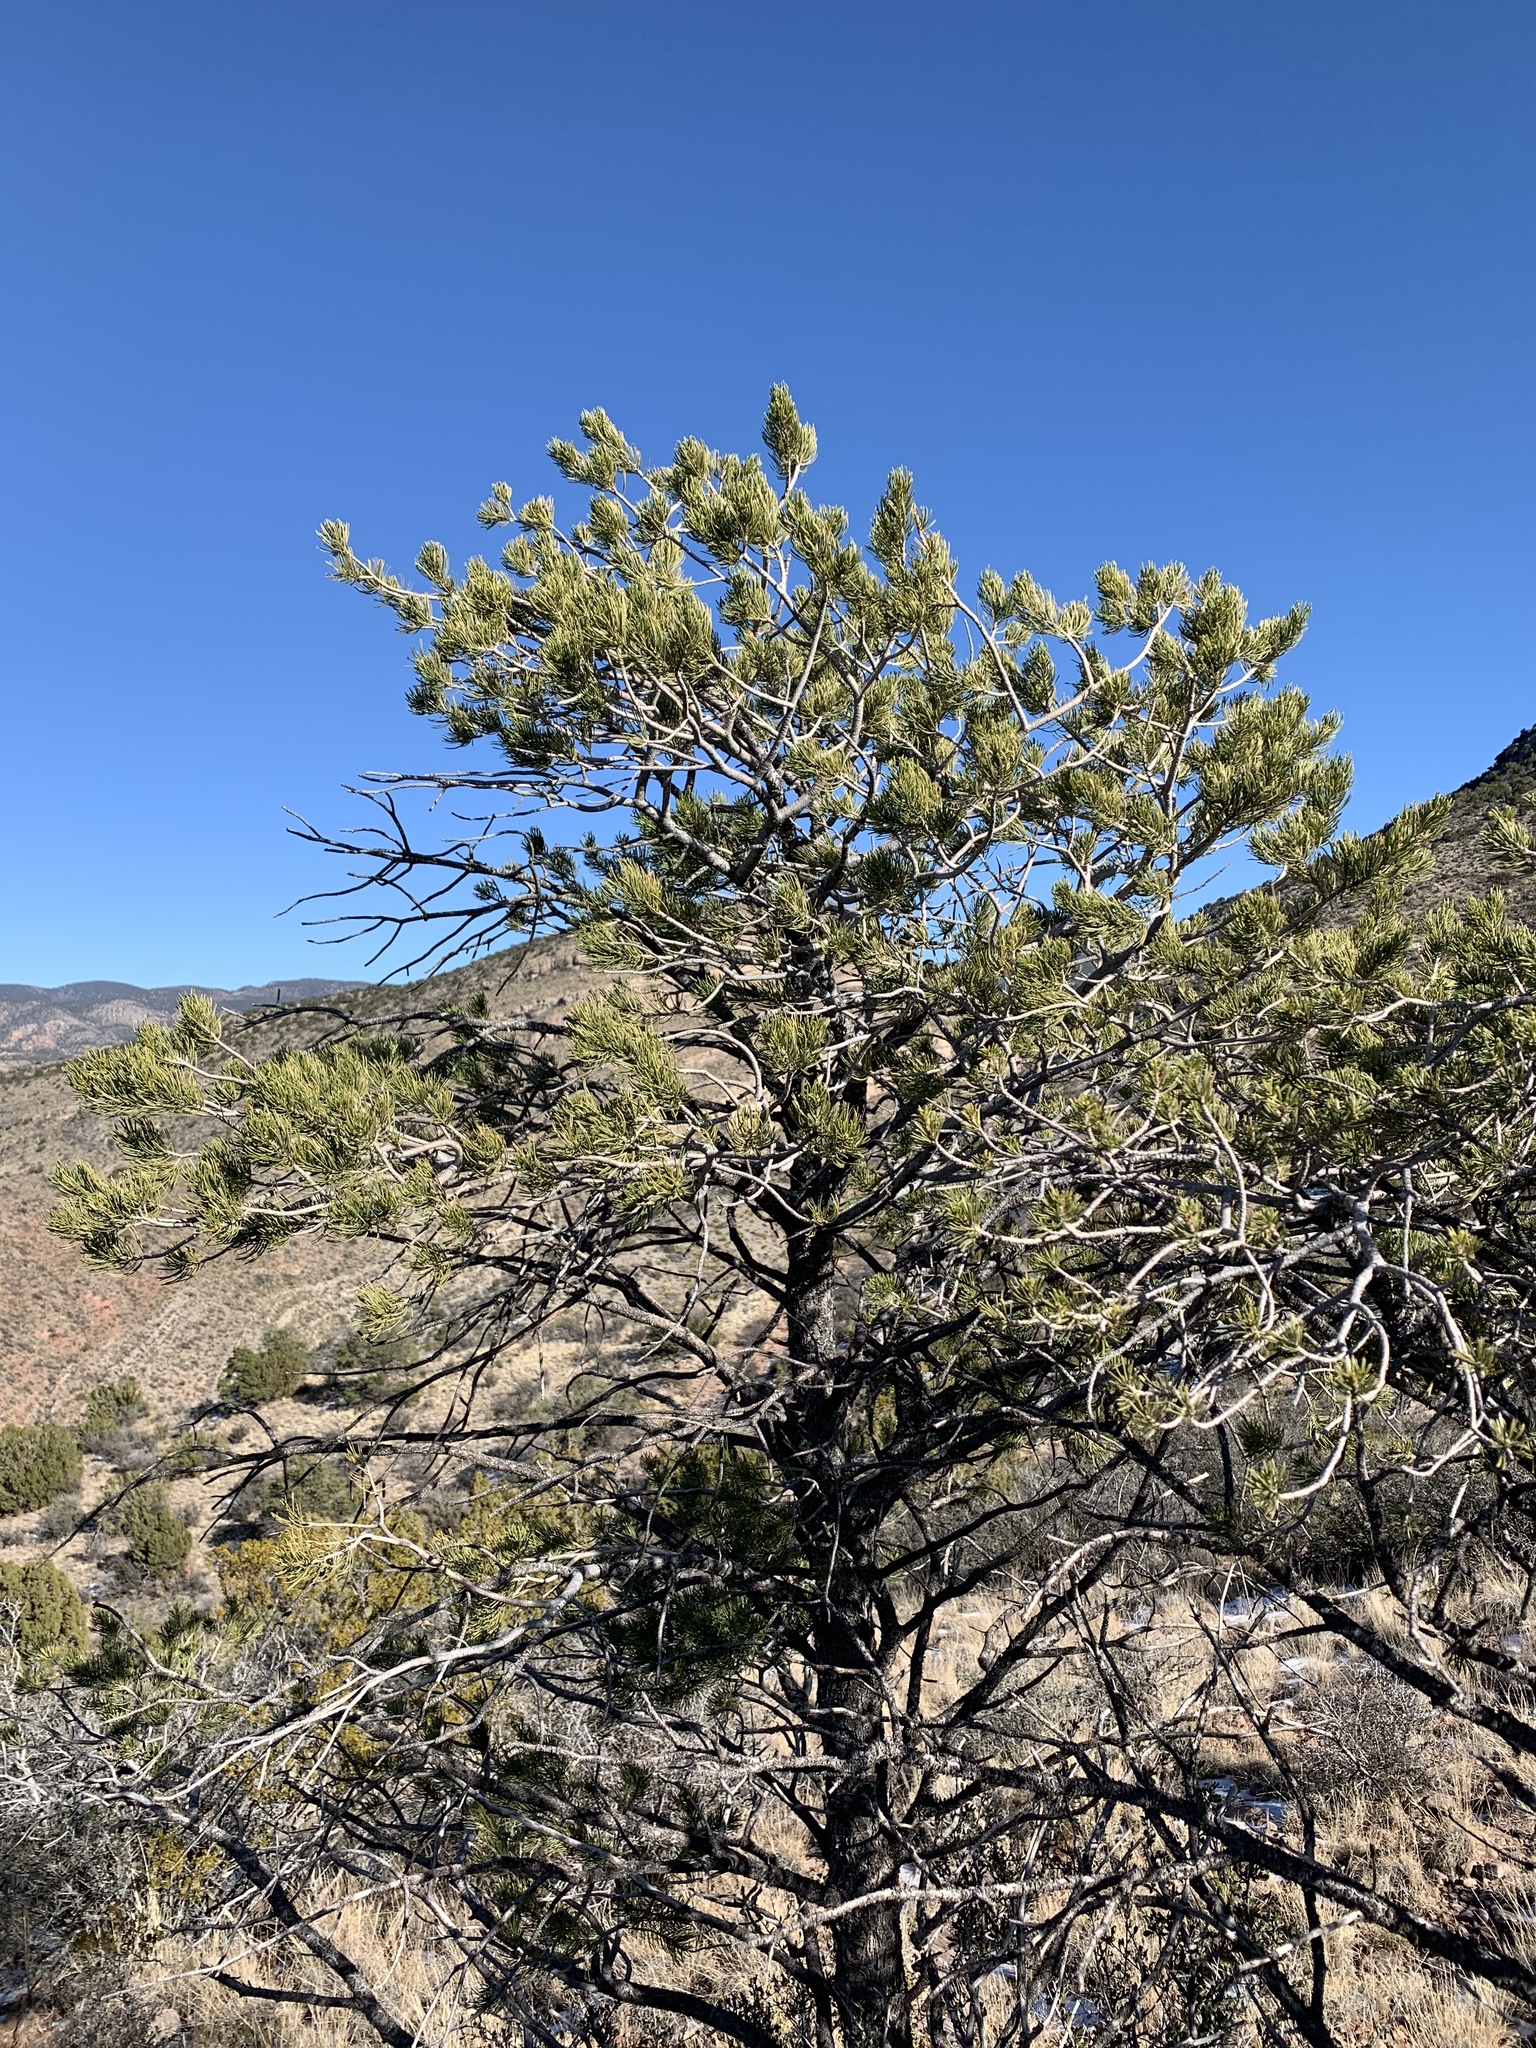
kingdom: Plantae
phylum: Tracheophyta
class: Pinopsida
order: Pinales
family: Pinaceae
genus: Pinus
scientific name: Pinus edulis
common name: Colorado pinyon
